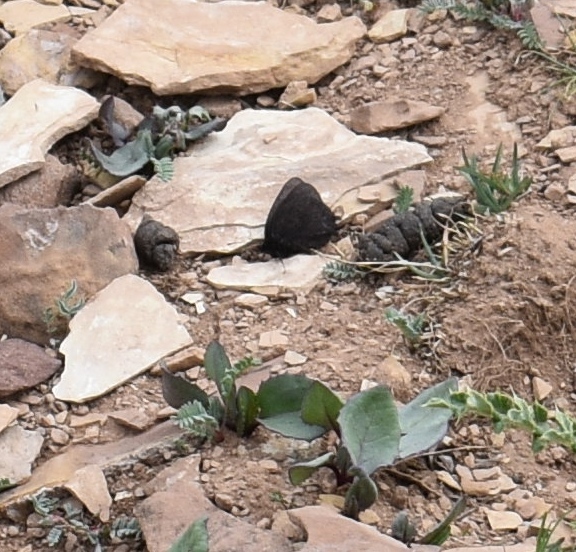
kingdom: Animalia
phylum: Arthropoda
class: Insecta
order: Lepidoptera
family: Nymphalidae
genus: Erebia
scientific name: Erebia magdalena
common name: Magdalena alpine
